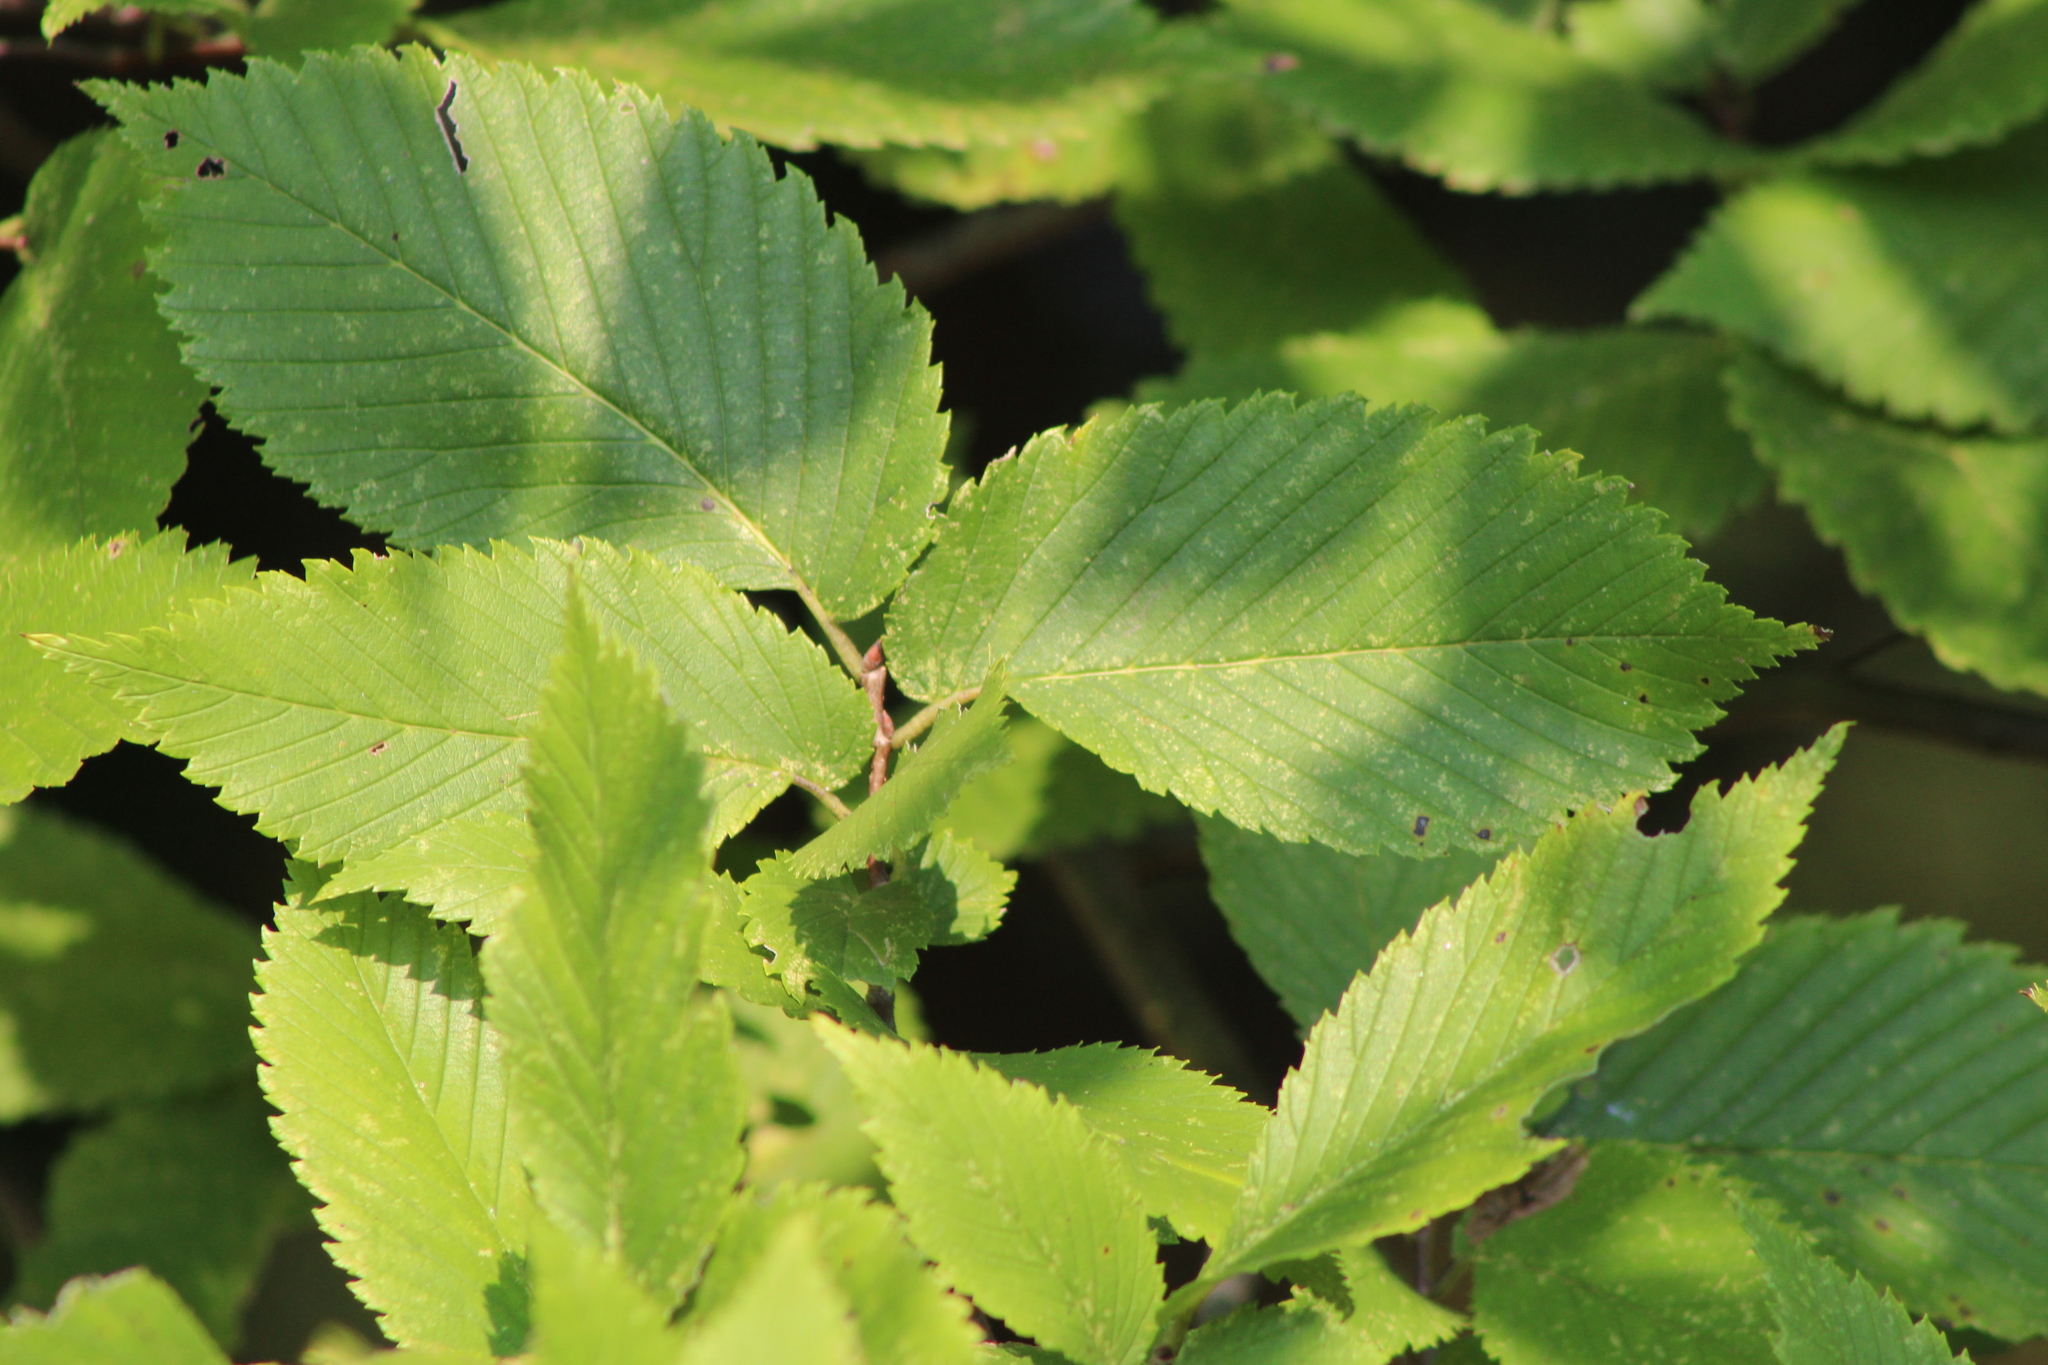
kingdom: Plantae
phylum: Tracheophyta
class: Magnoliopsida
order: Rosales
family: Ulmaceae
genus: Ulmus
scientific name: Ulmus americana
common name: American elm
